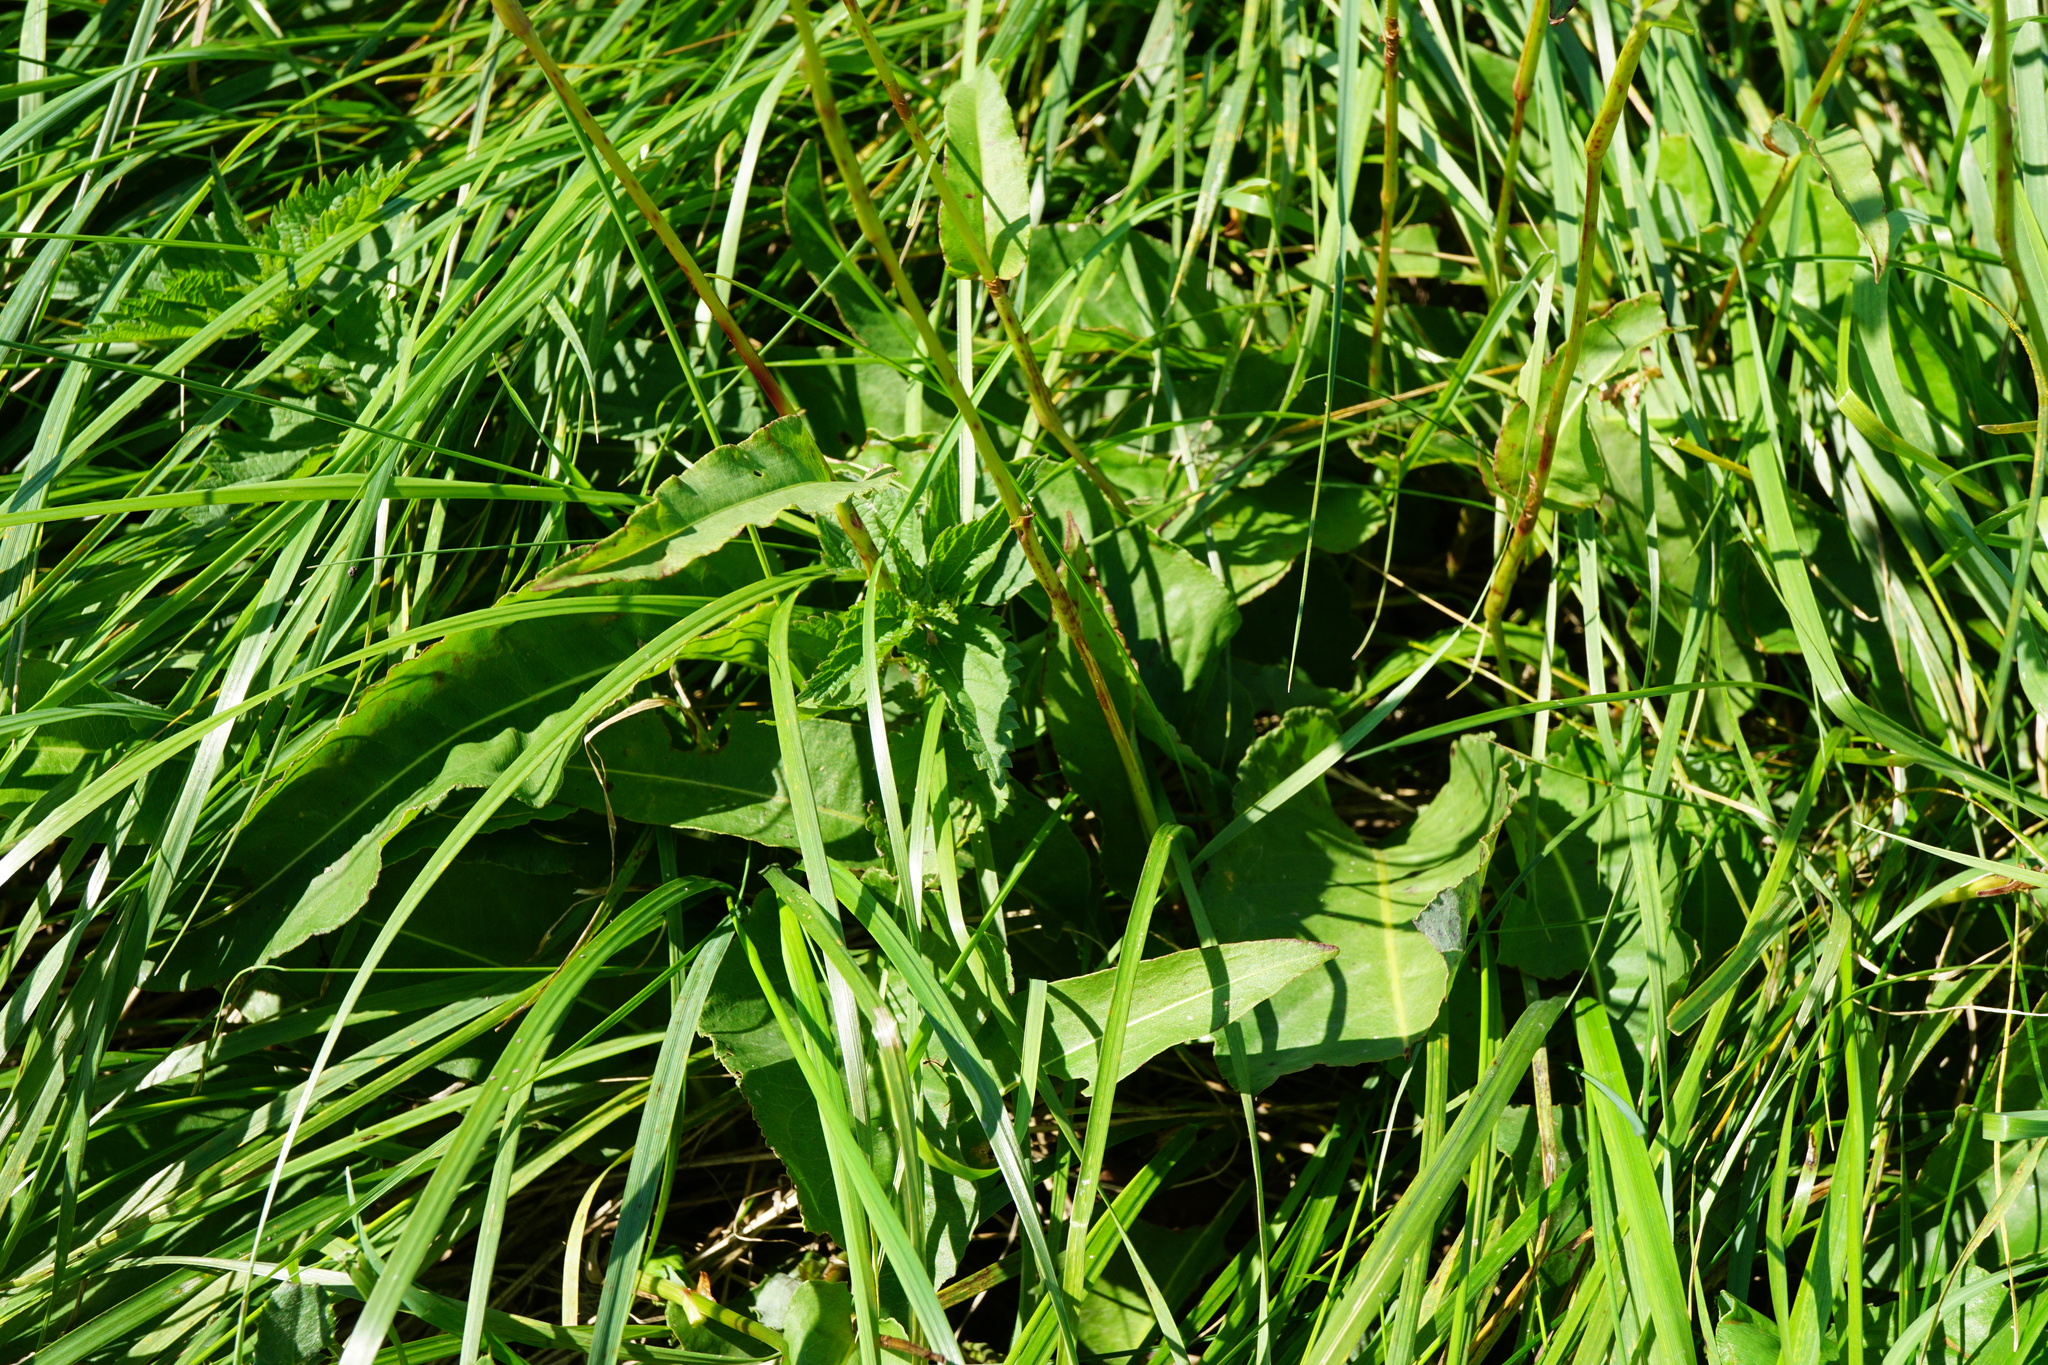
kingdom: Plantae
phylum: Tracheophyta
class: Magnoliopsida
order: Caryophyllales
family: Polygonaceae
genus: Bistorta
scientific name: Bistorta officinalis
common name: Common bistort
